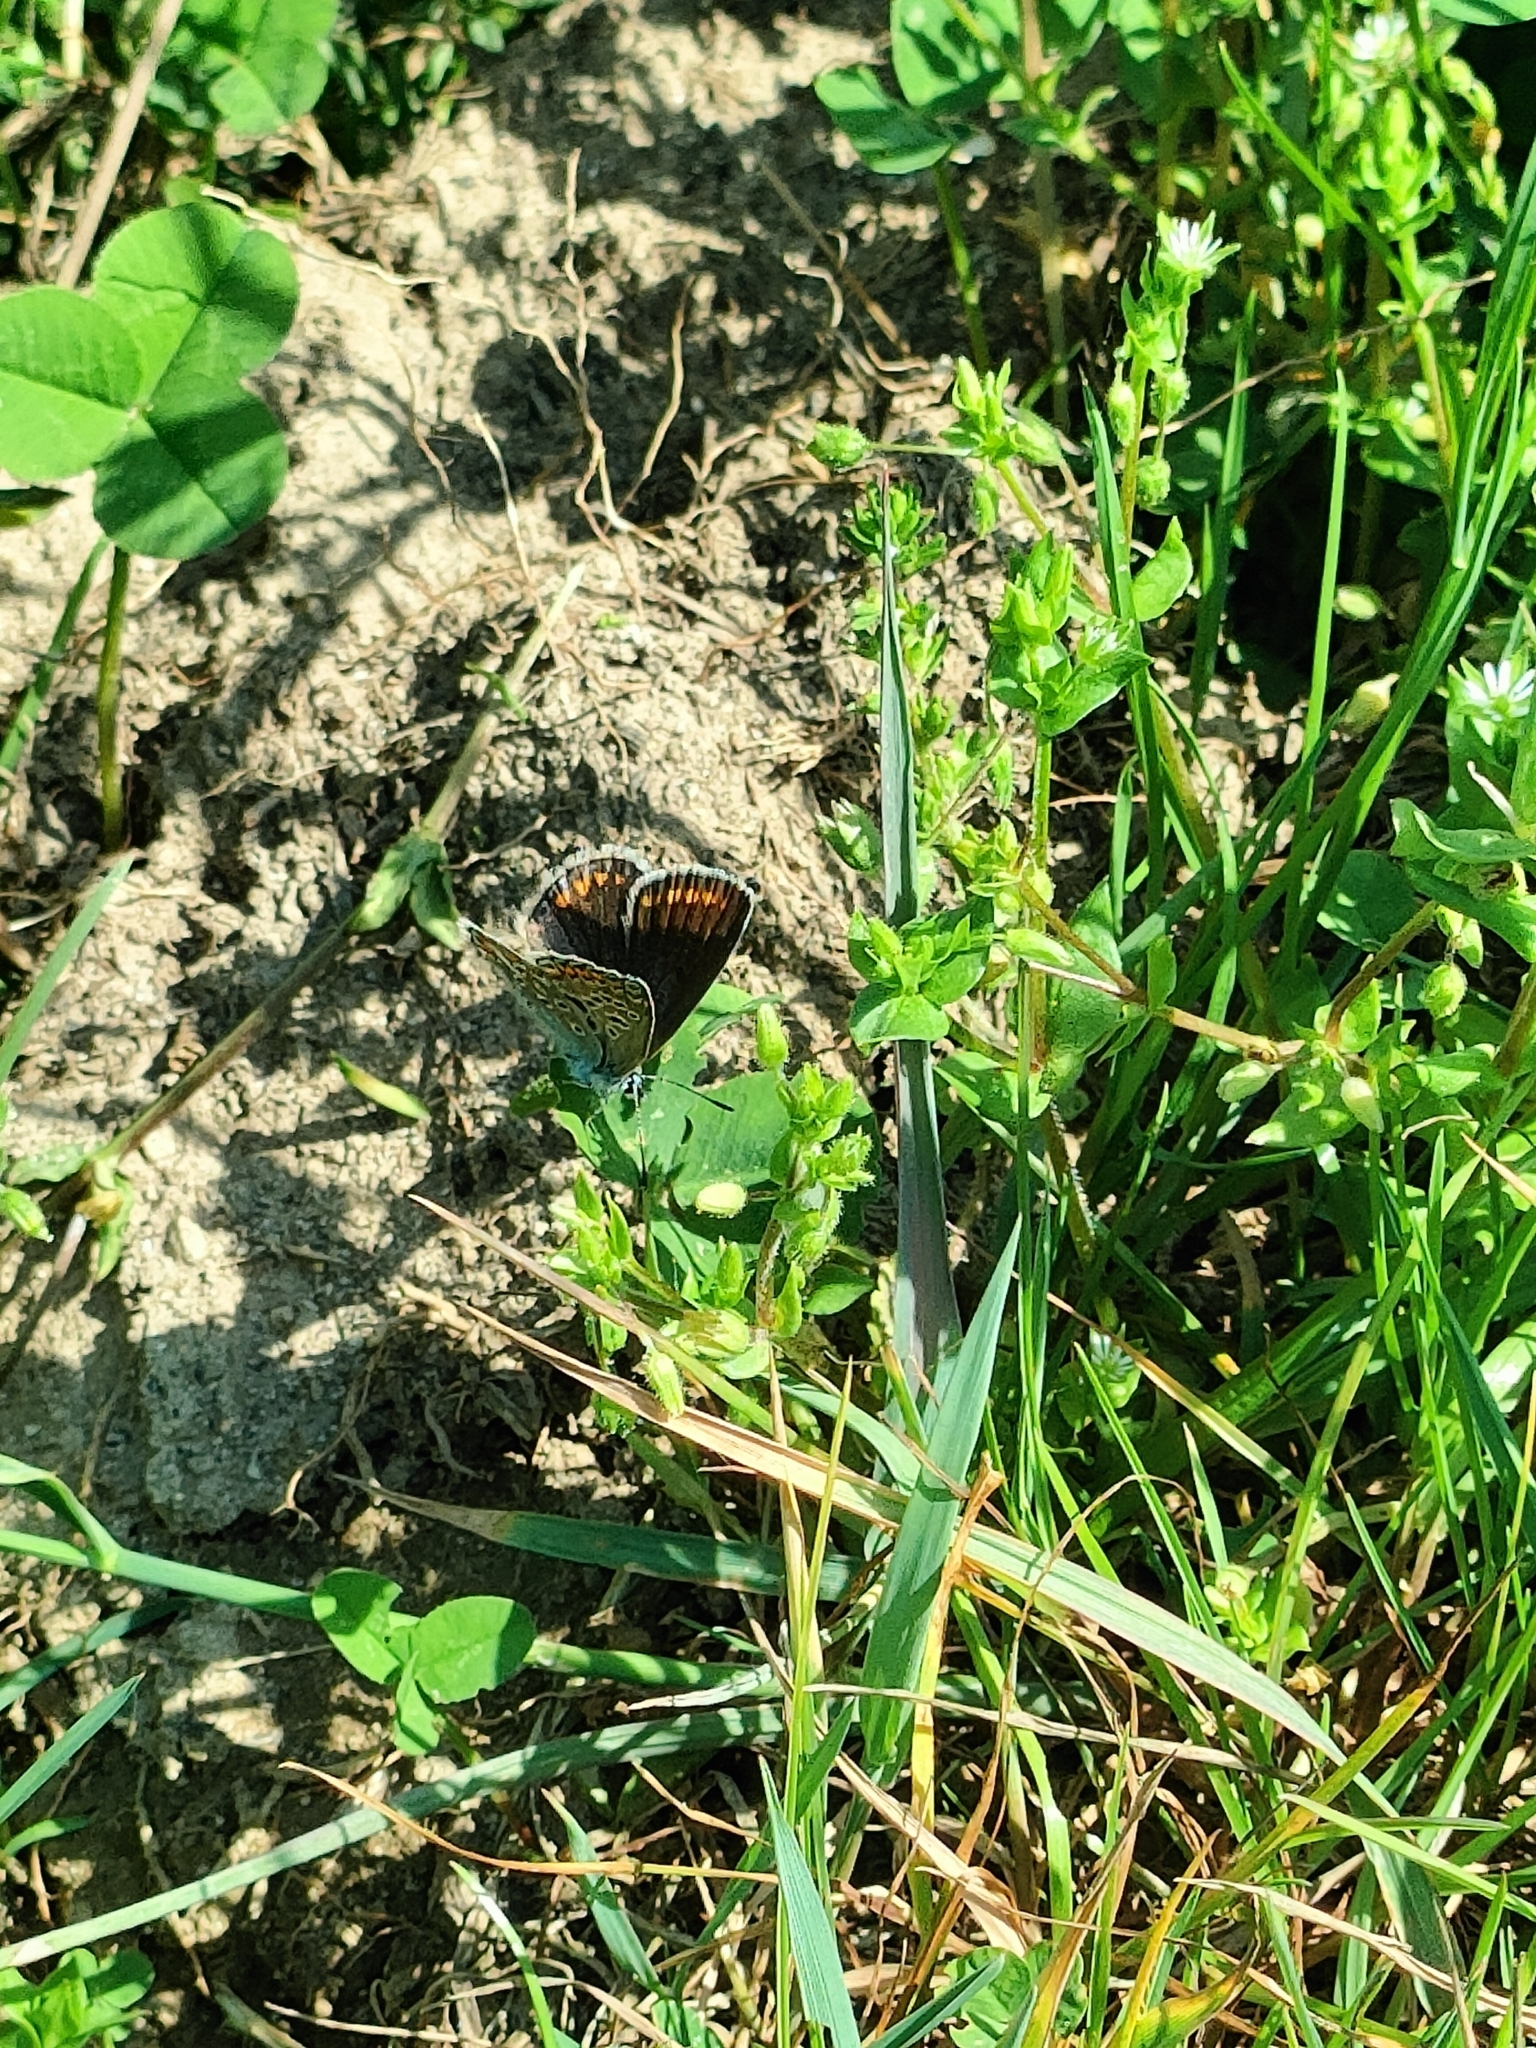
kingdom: Animalia
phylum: Arthropoda
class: Insecta
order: Lepidoptera
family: Lycaenidae
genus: Polyommatus
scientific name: Polyommatus icarus
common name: Common blue
